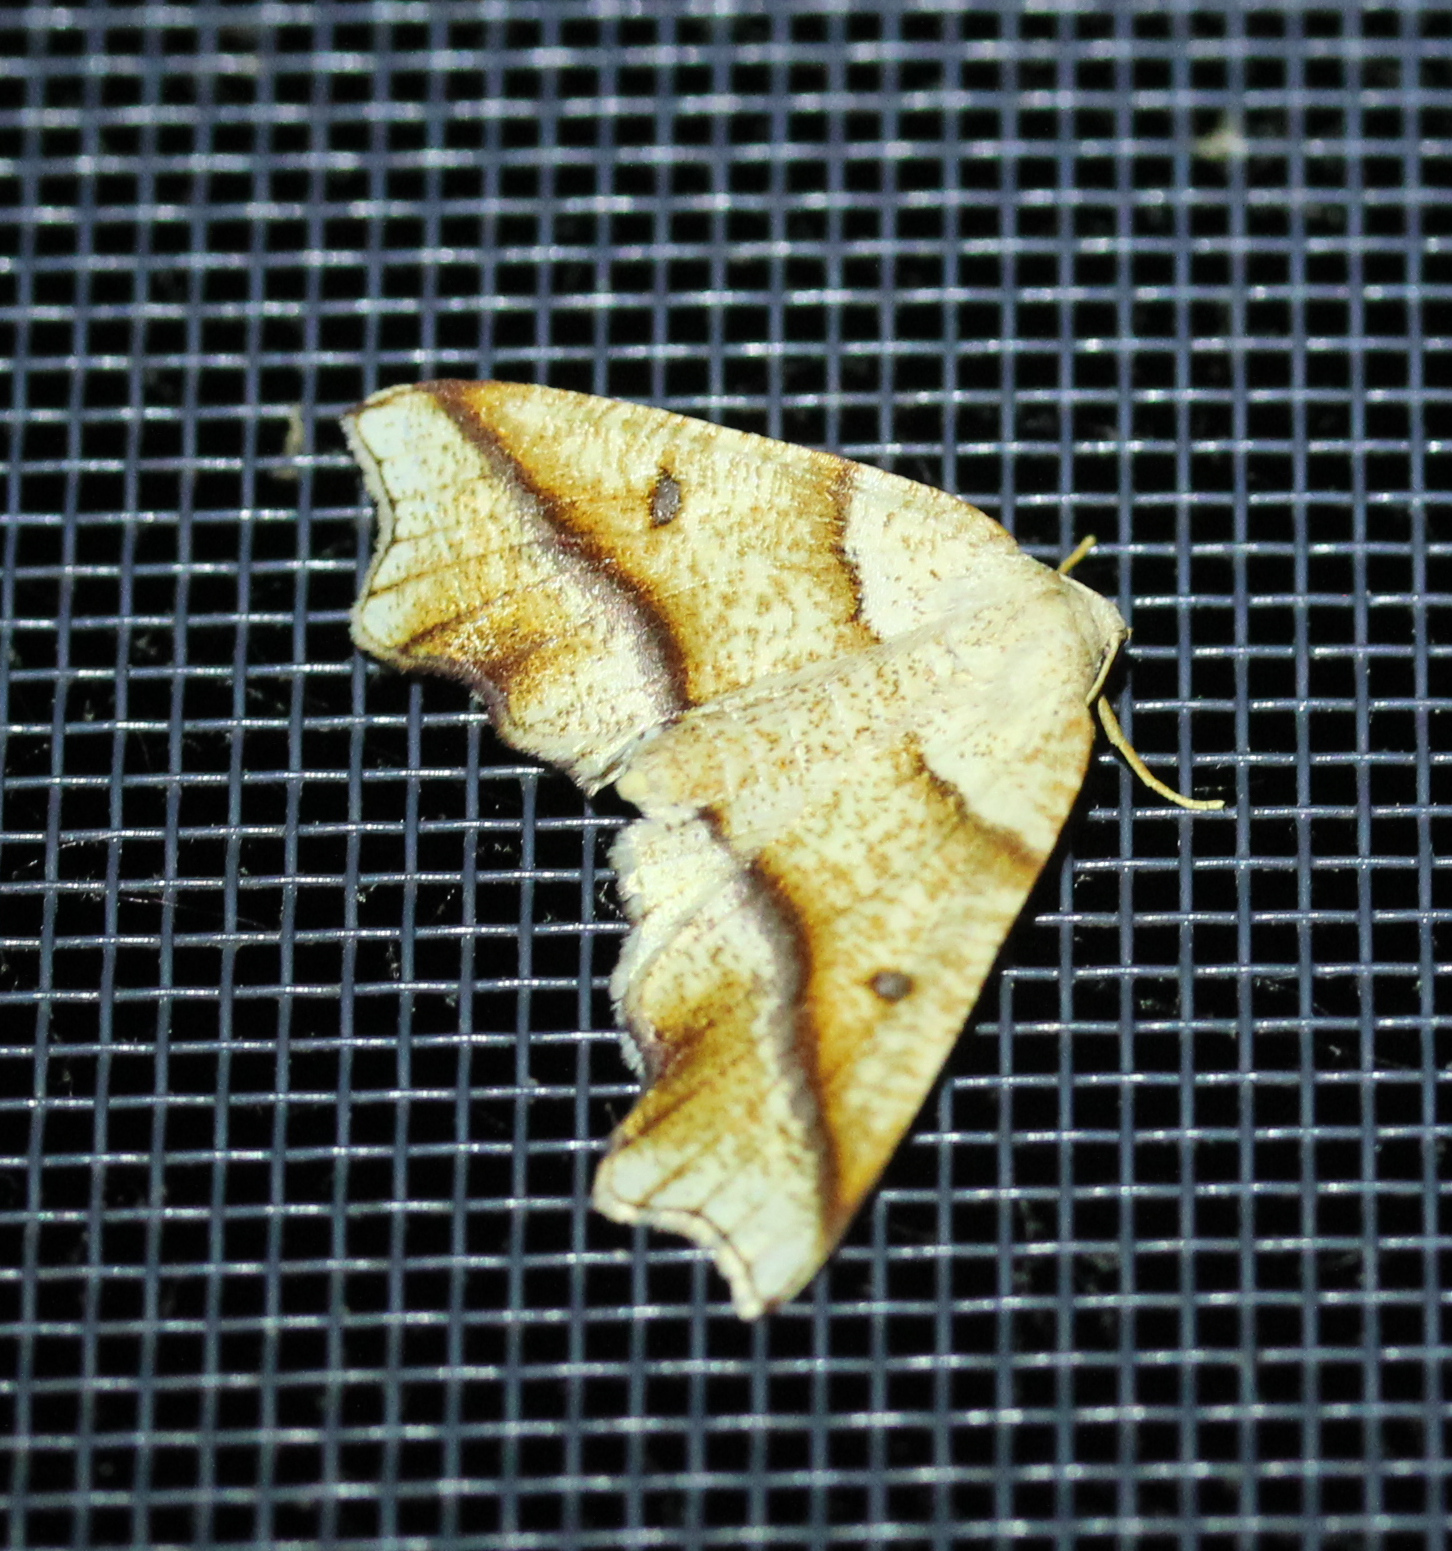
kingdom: Animalia
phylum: Arthropoda
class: Insecta
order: Lepidoptera
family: Geometridae
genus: Plagodis
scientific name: Plagodis alcoolaria
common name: Hollow-spotted plagodis
